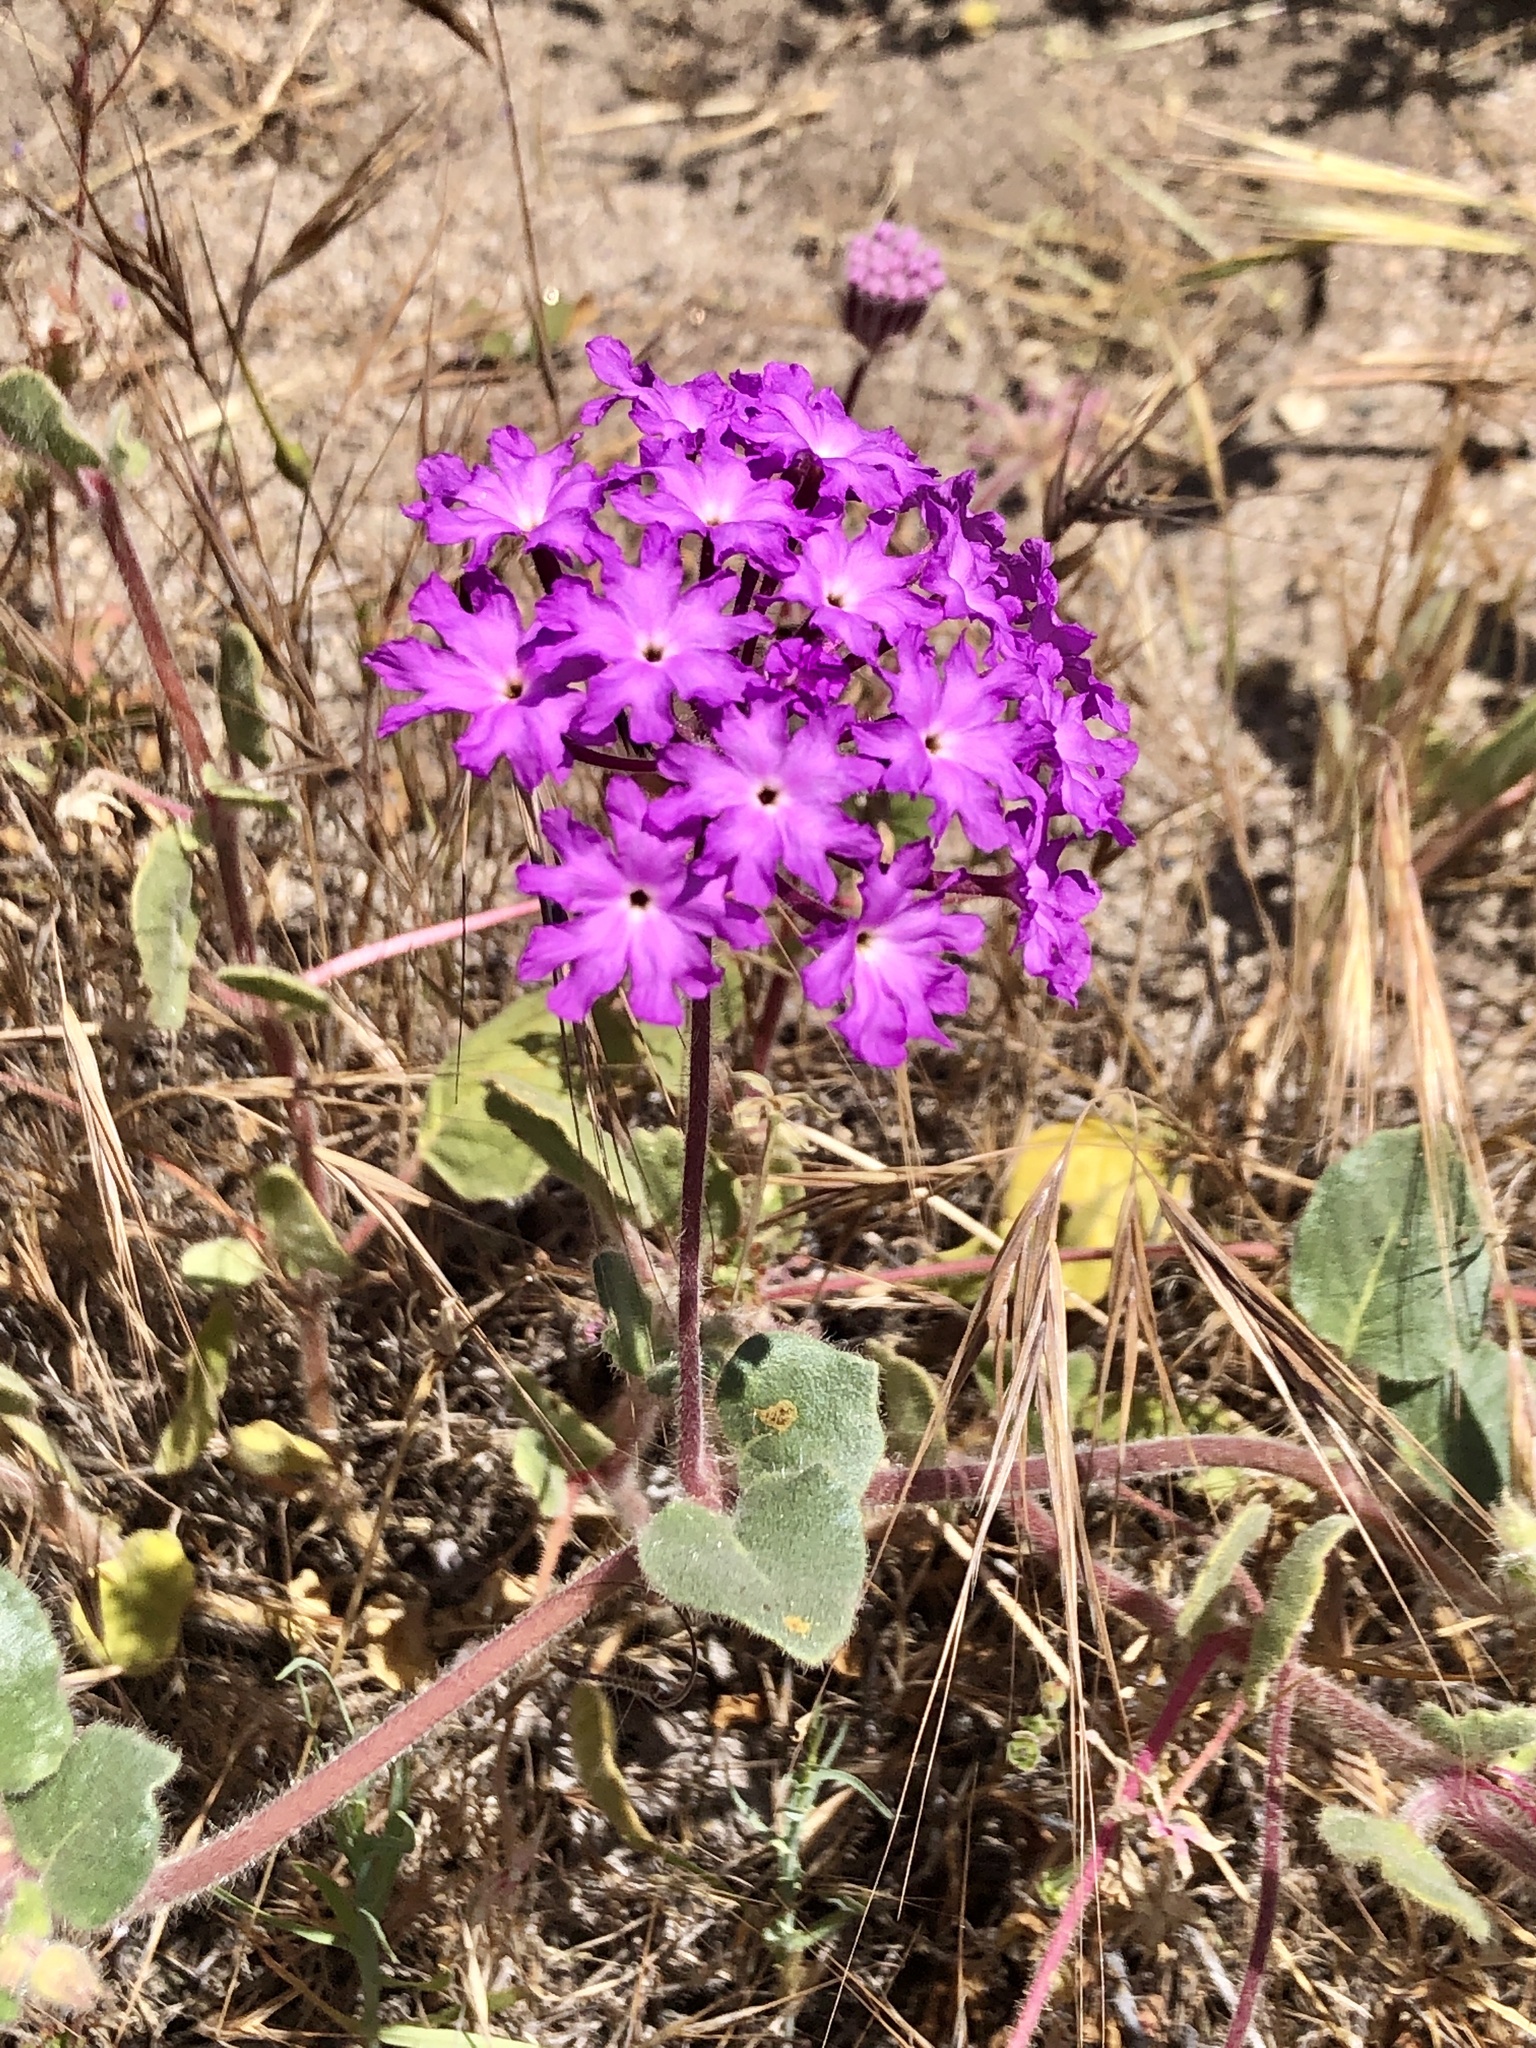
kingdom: Plantae
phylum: Tracheophyta
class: Magnoliopsida
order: Caryophyllales
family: Nyctaginaceae
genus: Abronia
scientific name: Abronia villosa
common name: Desert sand-verbena
